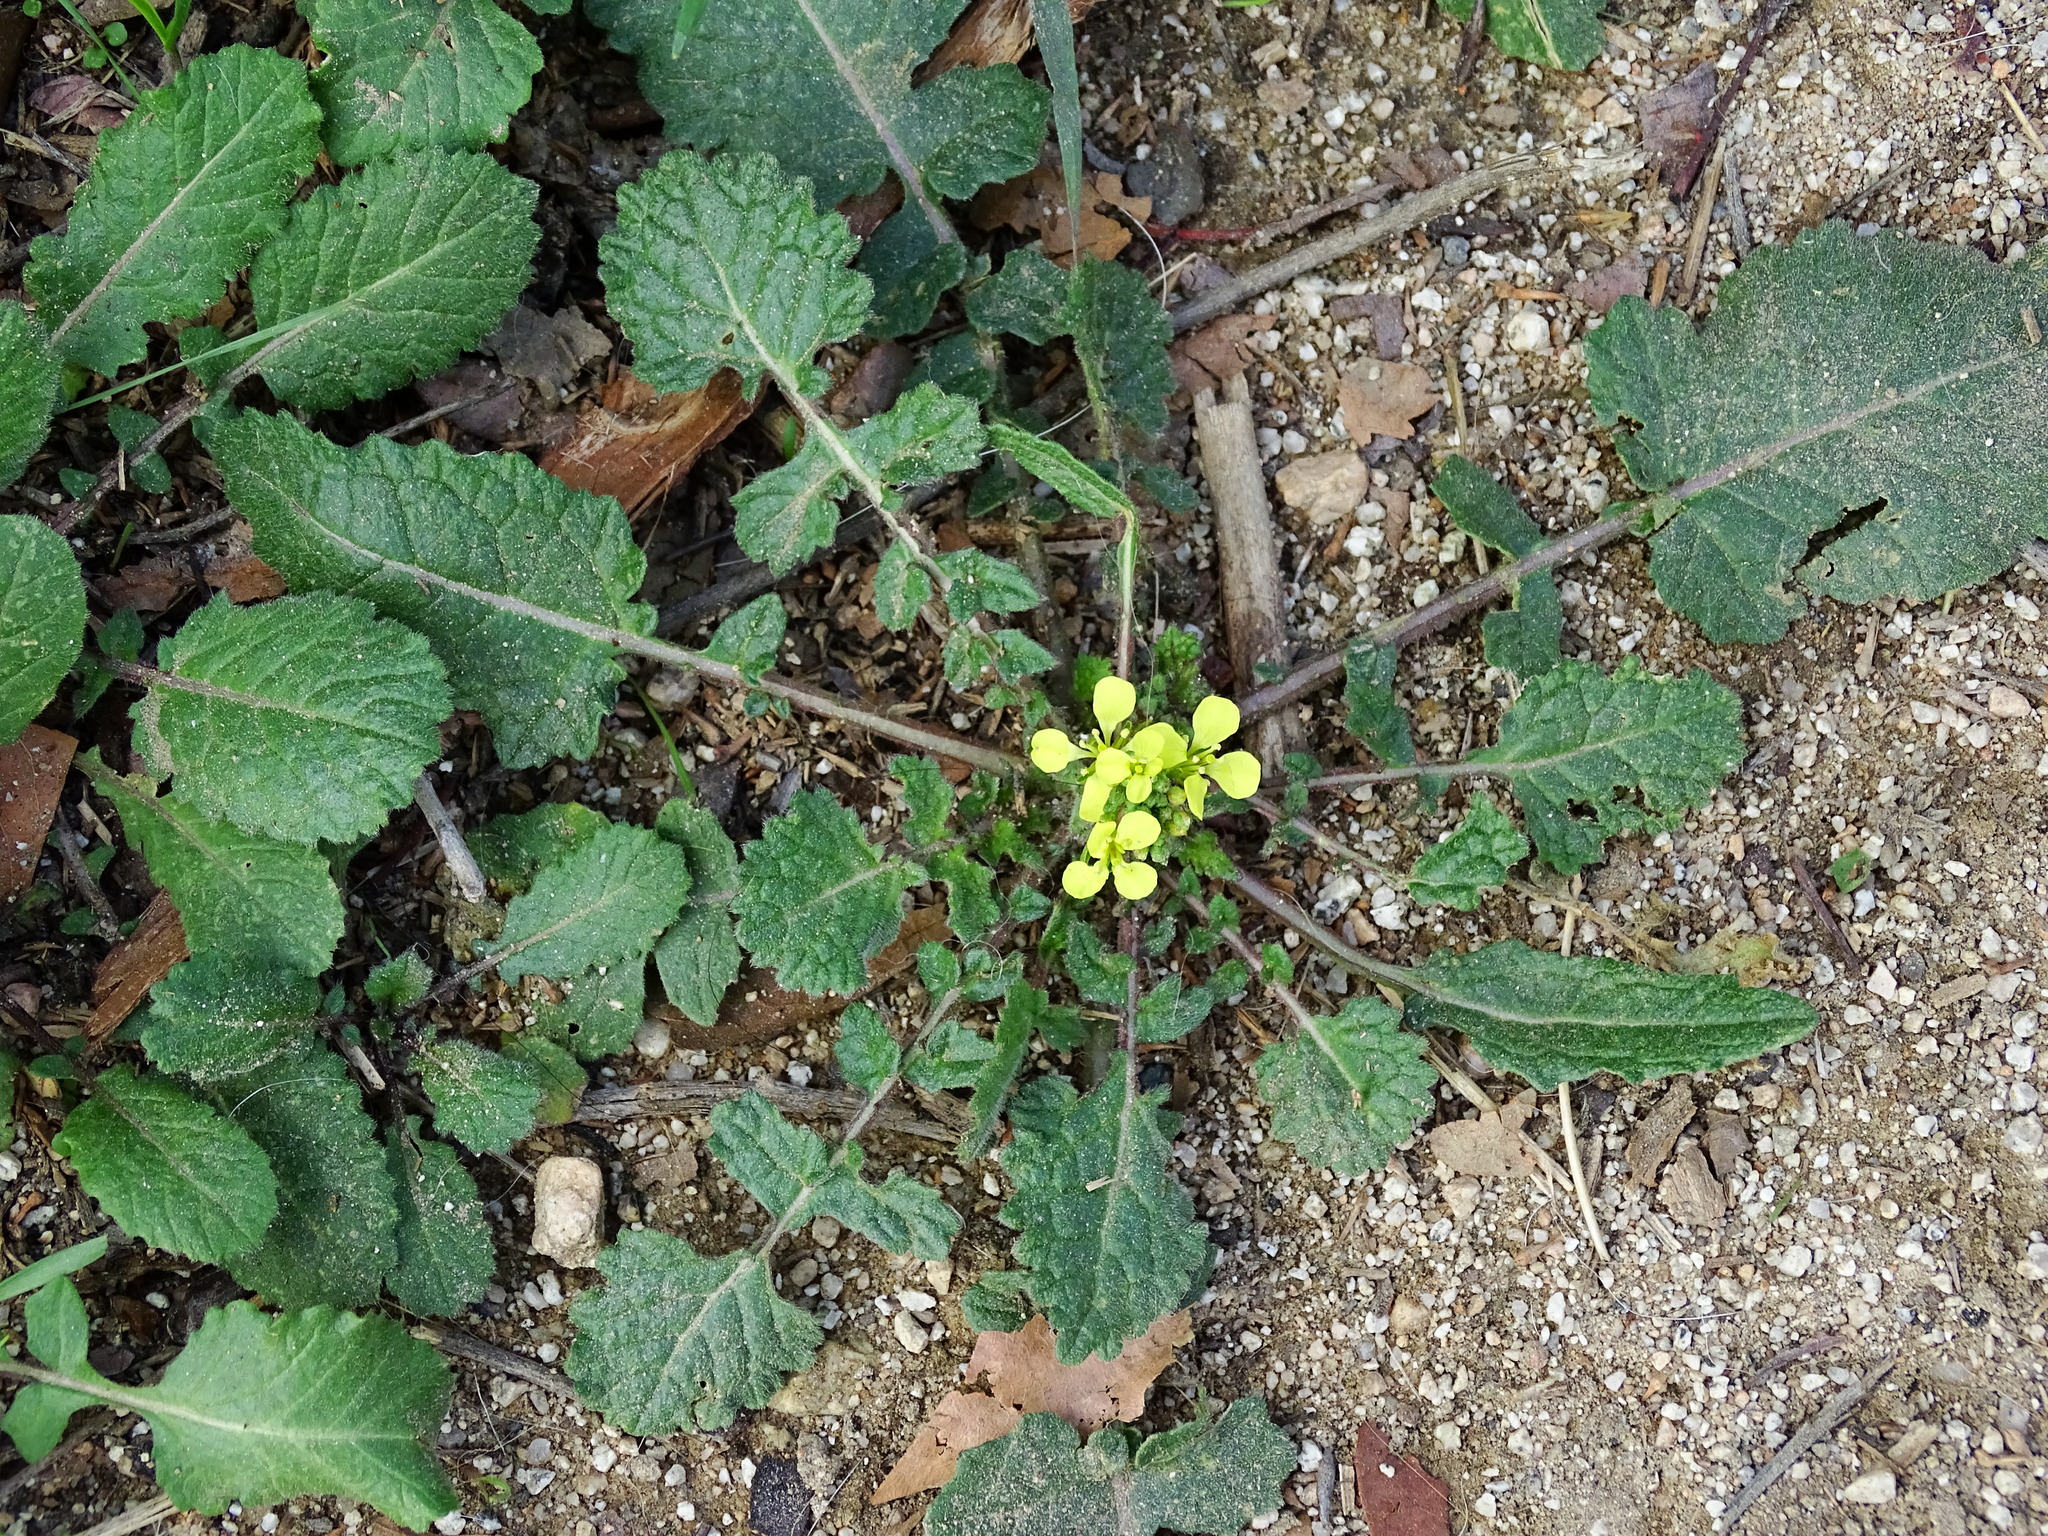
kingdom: Plantae
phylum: Tracheophyta
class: Magnoliopsida
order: Brassicales
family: Brassicaceae
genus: Hirschfeldia
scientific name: Hirschfeldia incana
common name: Hoary mustard
